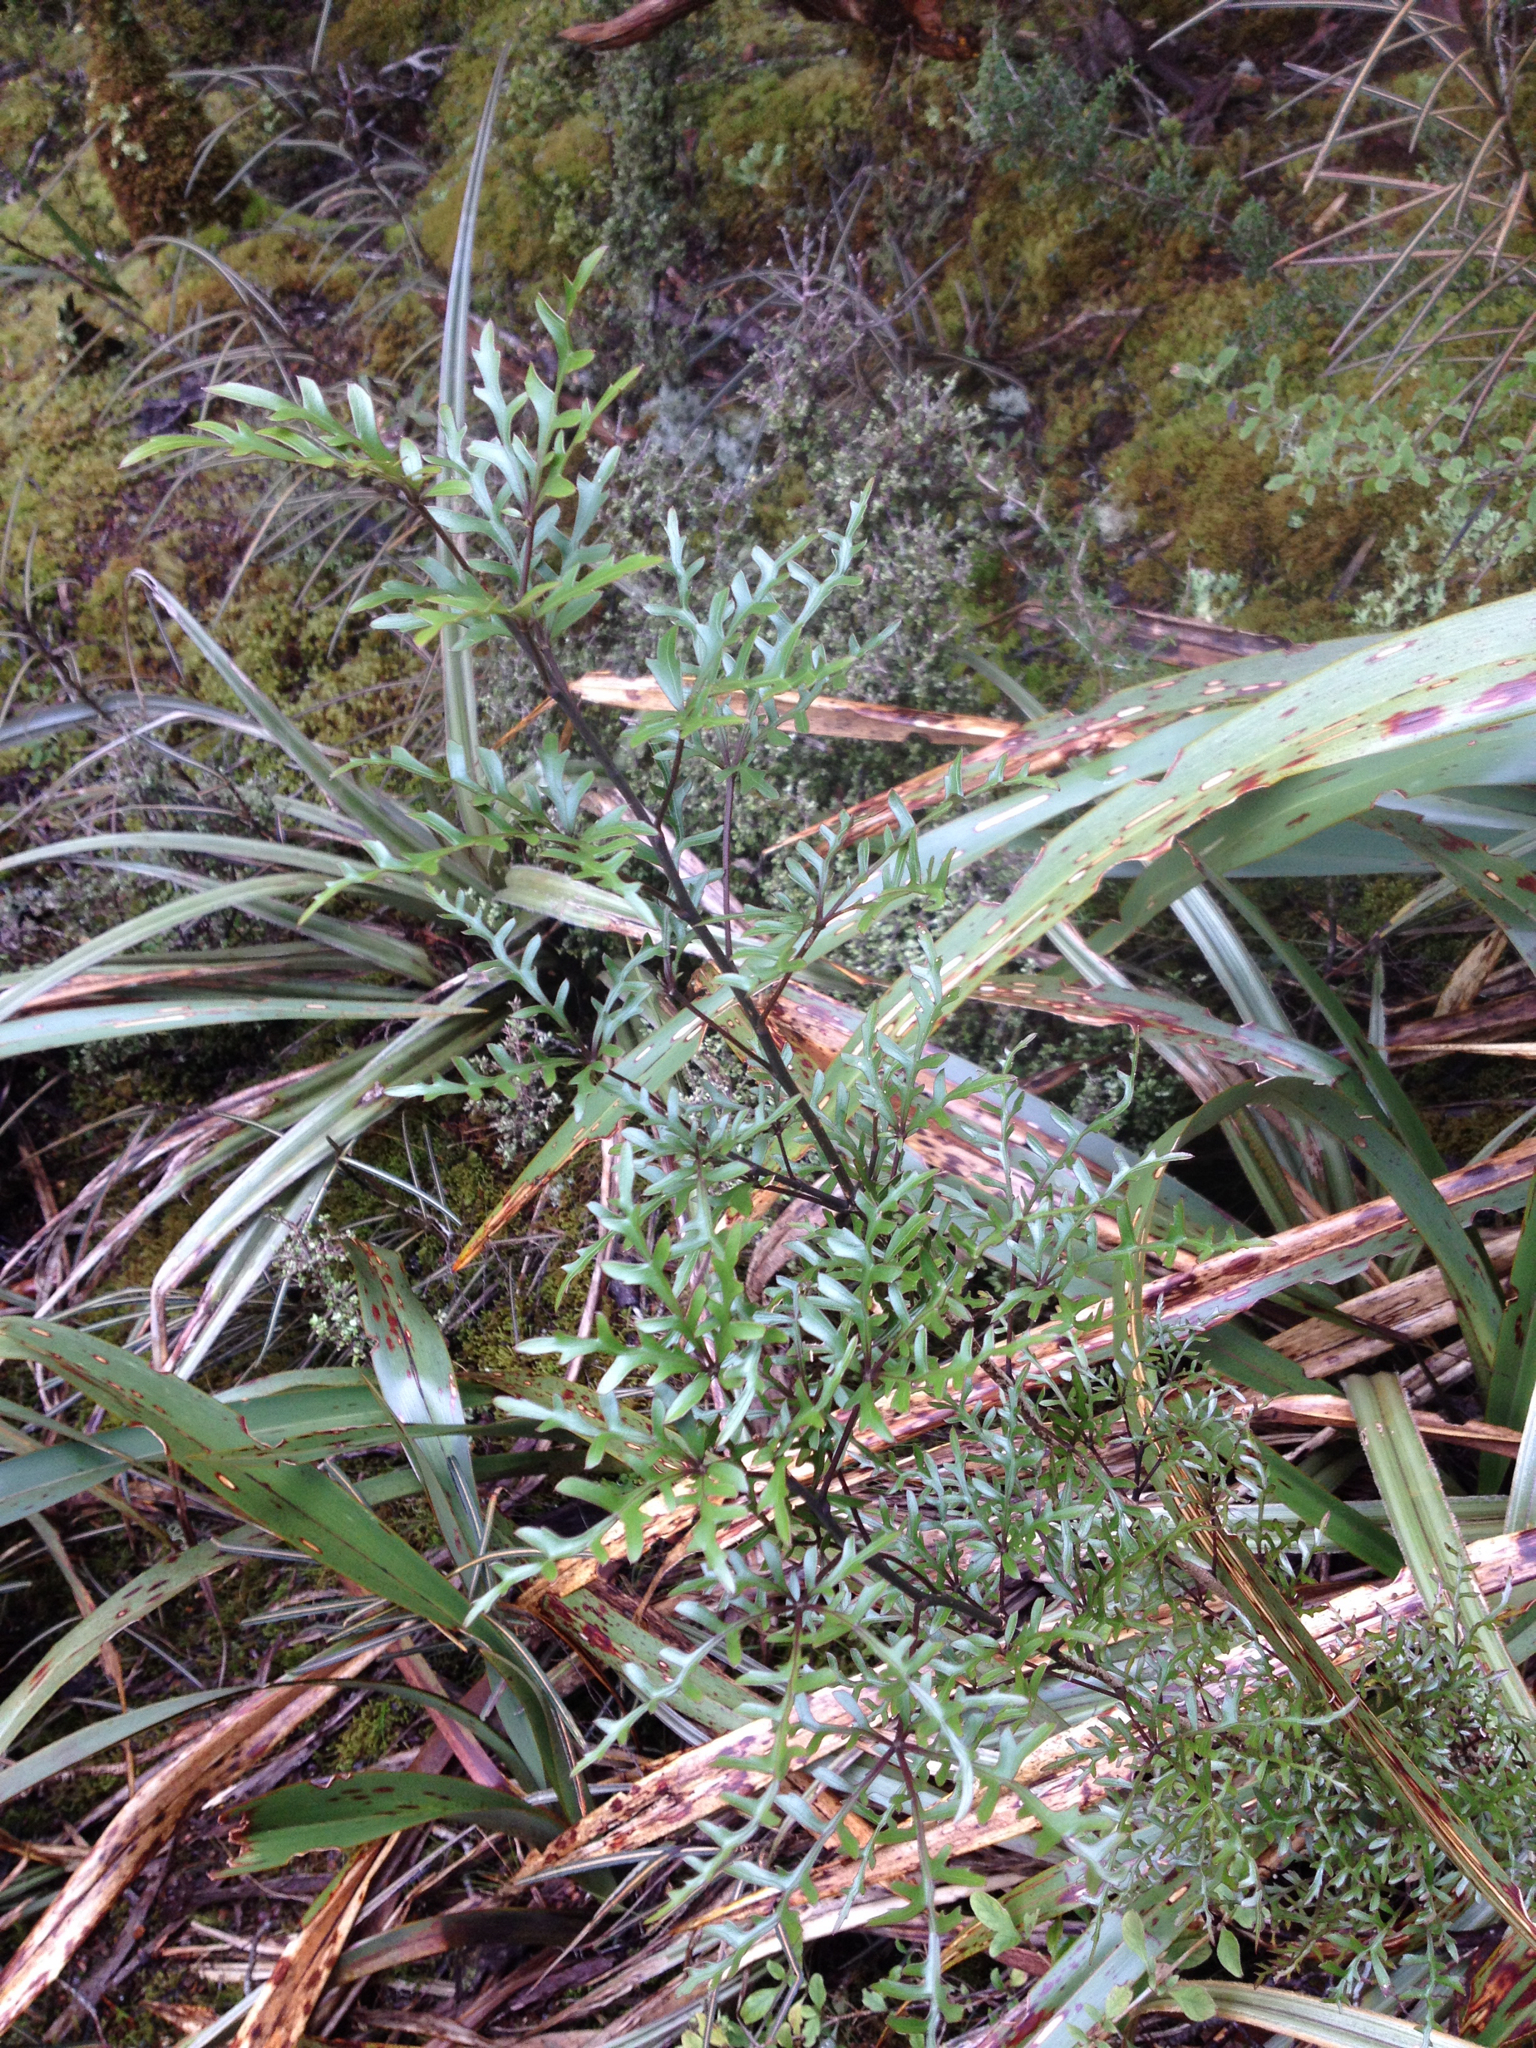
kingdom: Plantae
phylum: Tracheophyta
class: Magnoliopsida
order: Apiales
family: Araliaceae
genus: Raukaua
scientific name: Raukaua simplex
